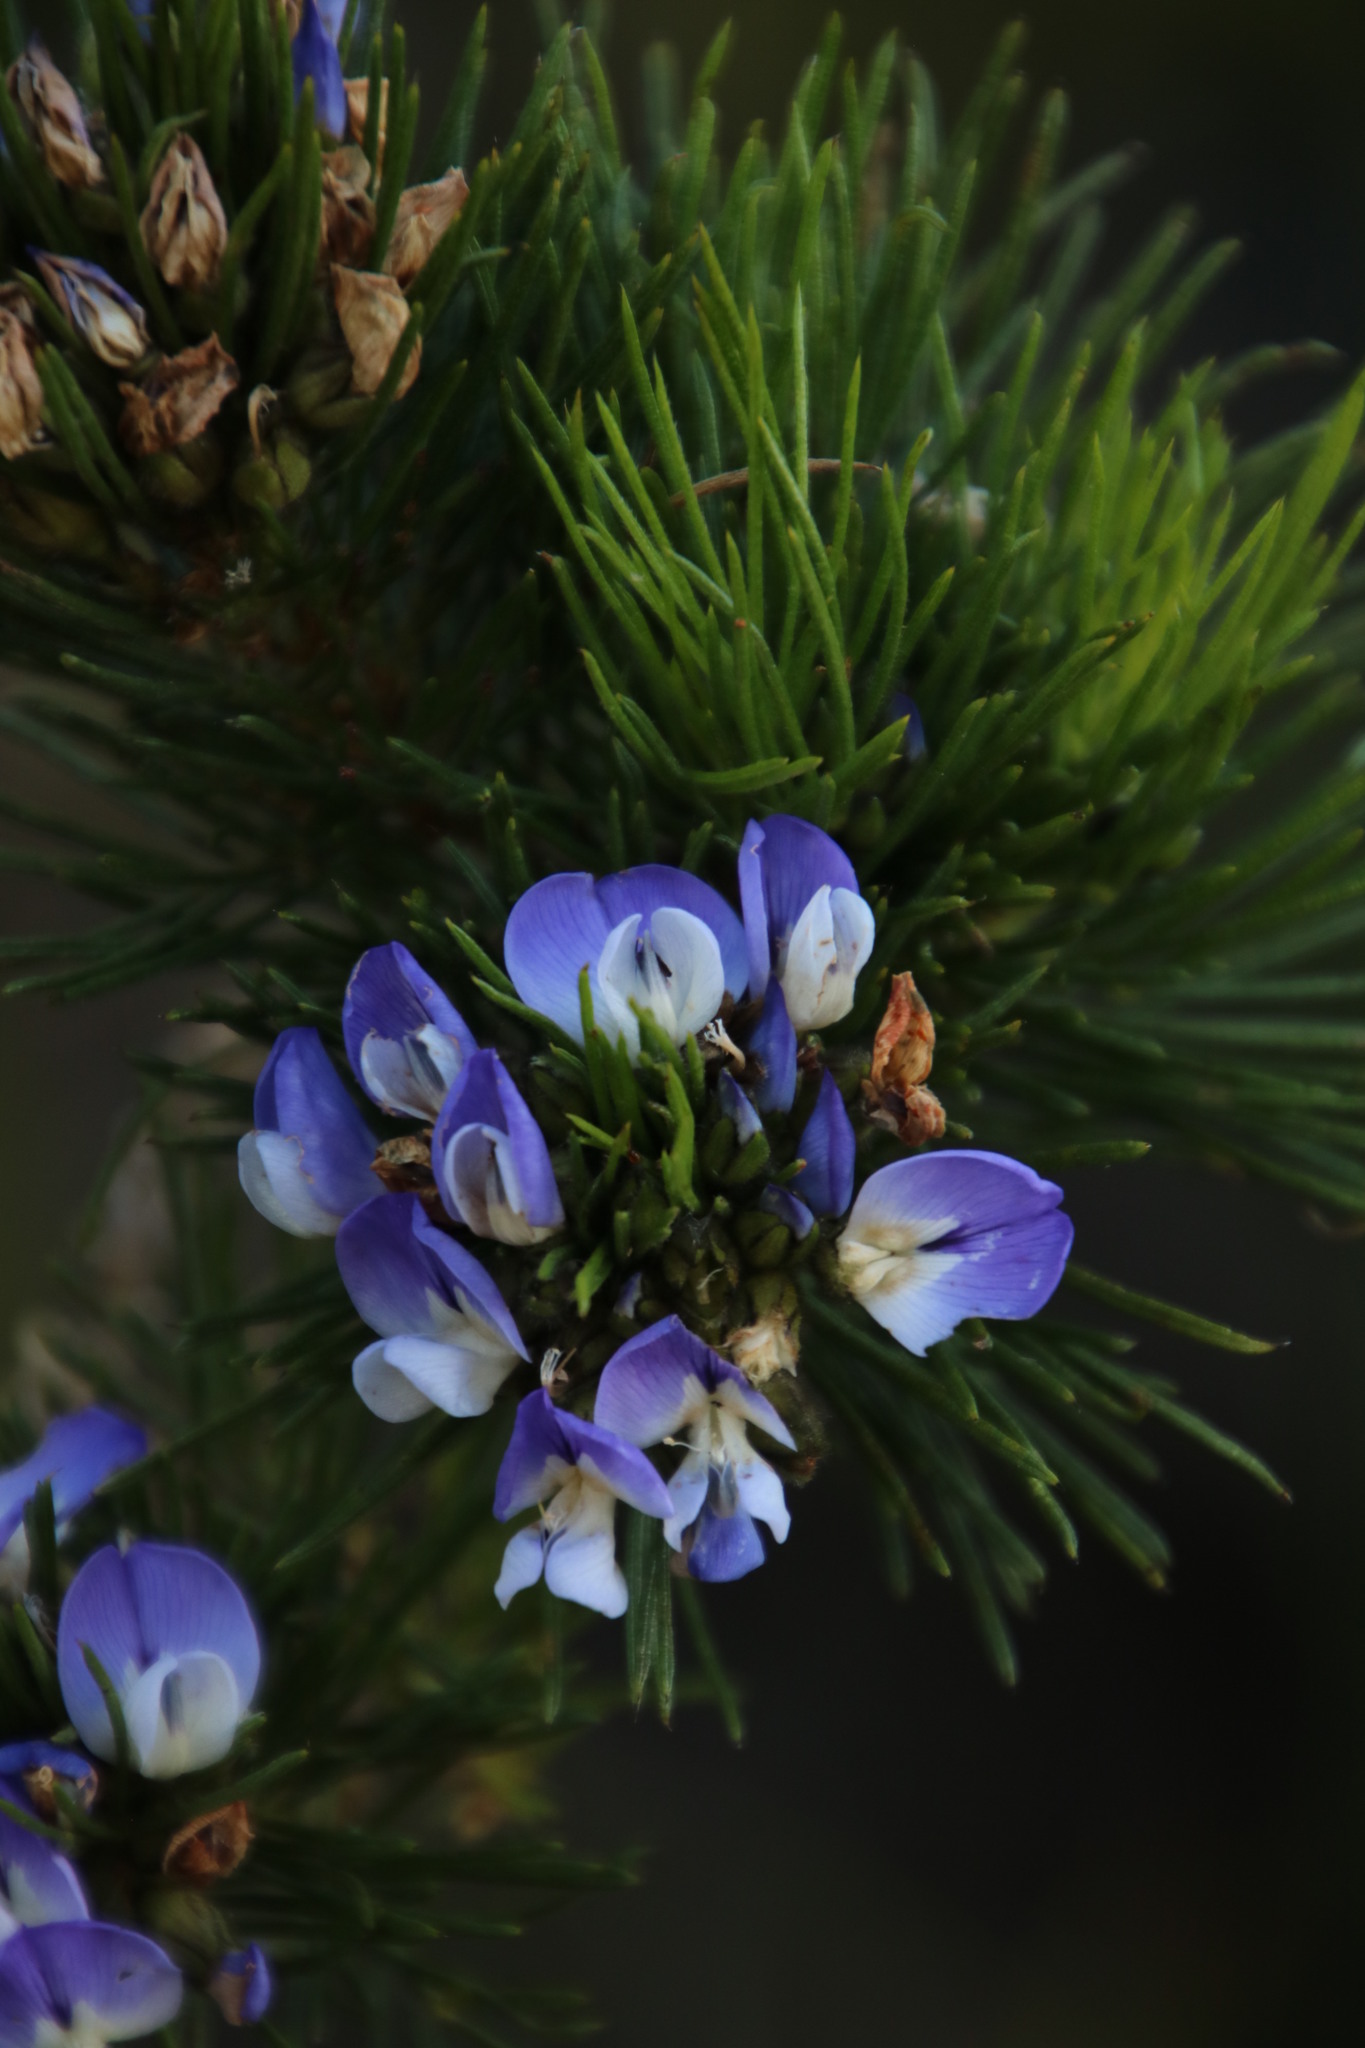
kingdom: Plantae
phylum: Tracheophyta
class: Magnoliopsida
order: Fabales
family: Fabaceae
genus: Psoralea
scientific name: Psoralea pinnata
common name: African scurfpea
